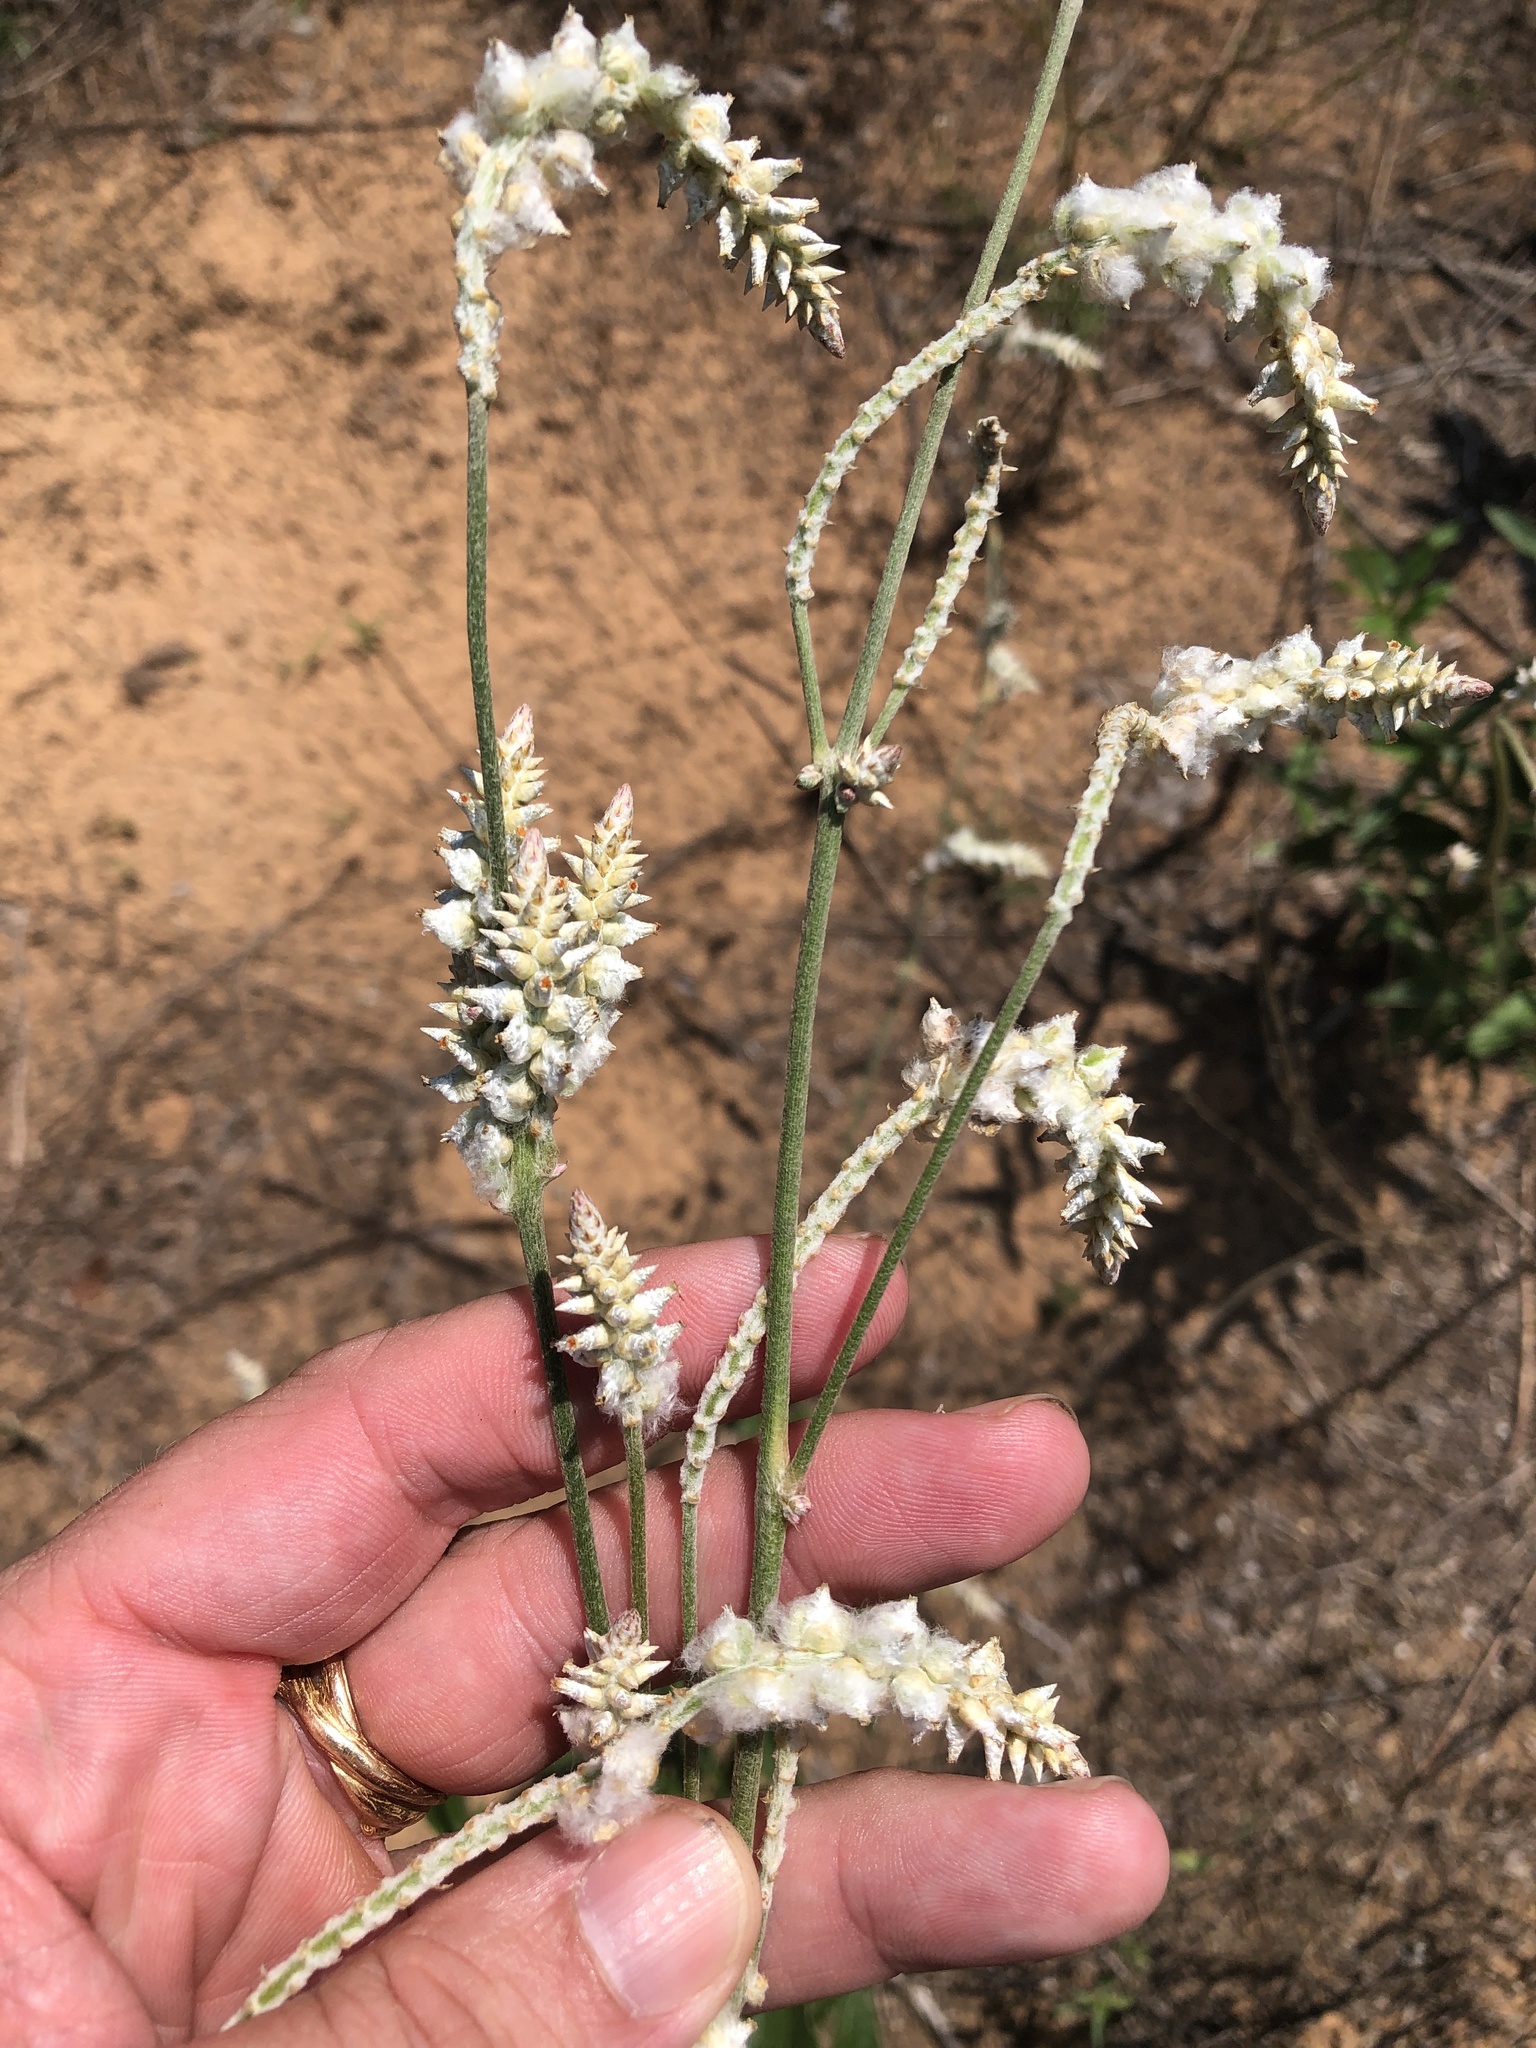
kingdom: Plantae
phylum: Tracheophyta
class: Magnoliopsida
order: Caryophyllales
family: Amaranthaceae
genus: Froelichia
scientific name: Froelichia floridana
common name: Florida snake-cotton
